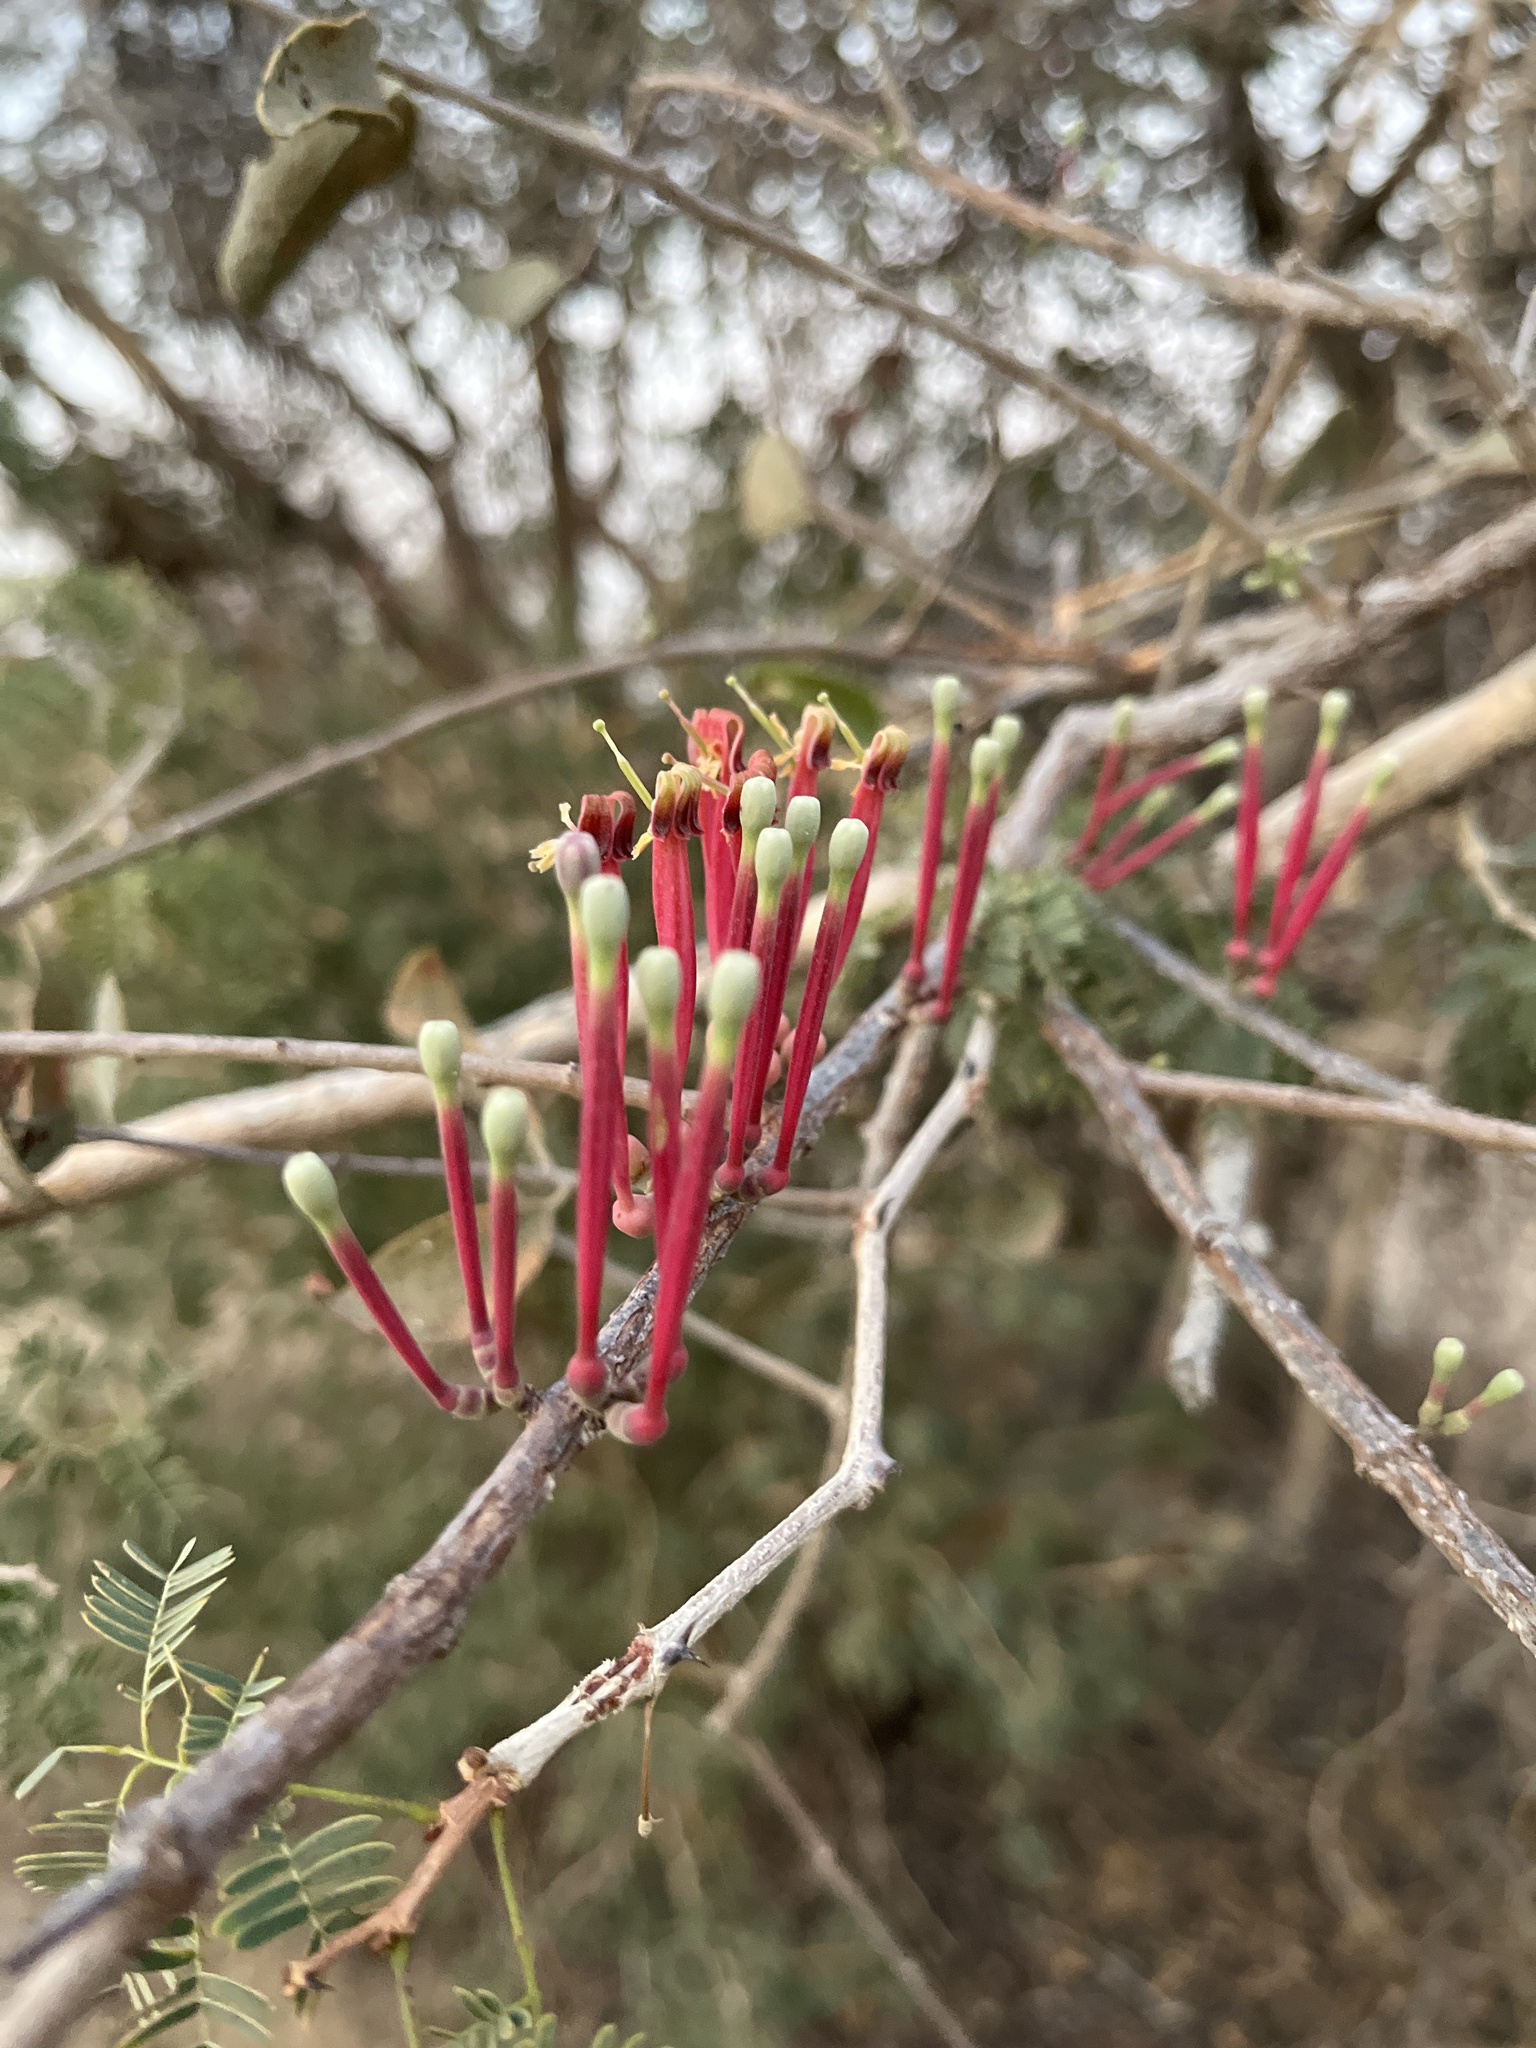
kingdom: Plantae
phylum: Tracheophyta
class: Magnoliopsida
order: Santalales
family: Loranthaceae
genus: Tapinanthus
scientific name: Tapinanthus oleifolius
